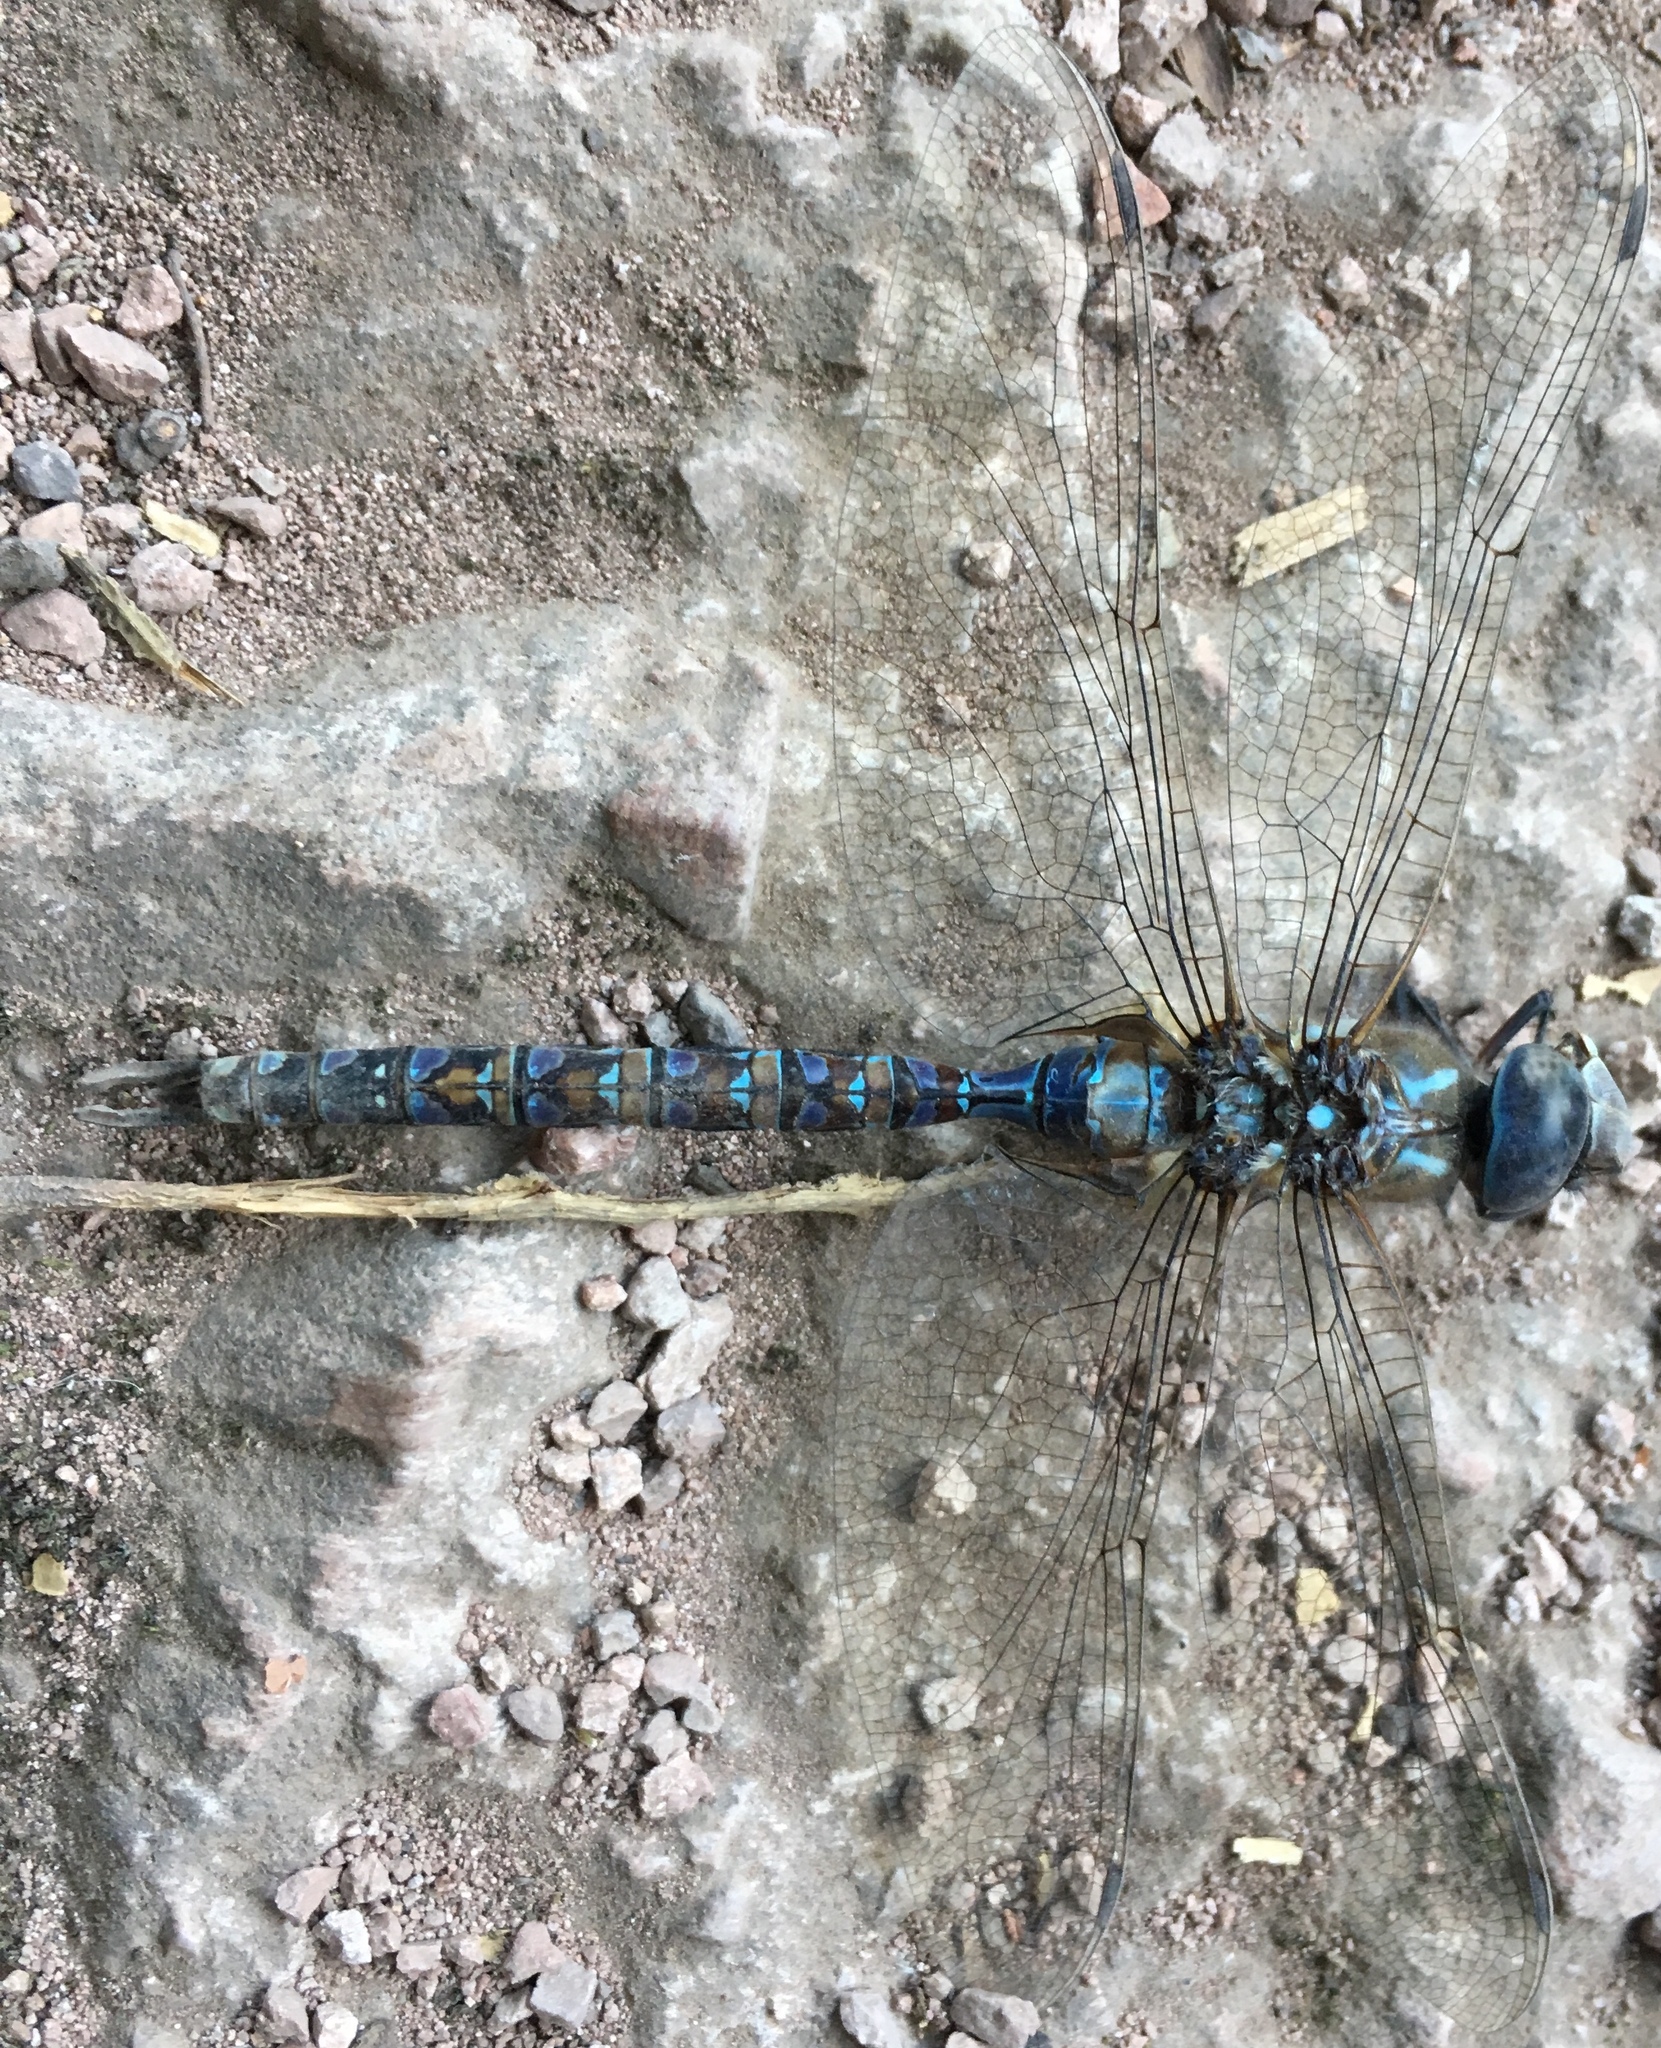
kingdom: Animalia
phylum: Arthropoda
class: Insecta
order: Odonata
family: Aeshnidae
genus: Rhionaeschna
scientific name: Rhionaeschna multicolor
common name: Blue-eyed darner
